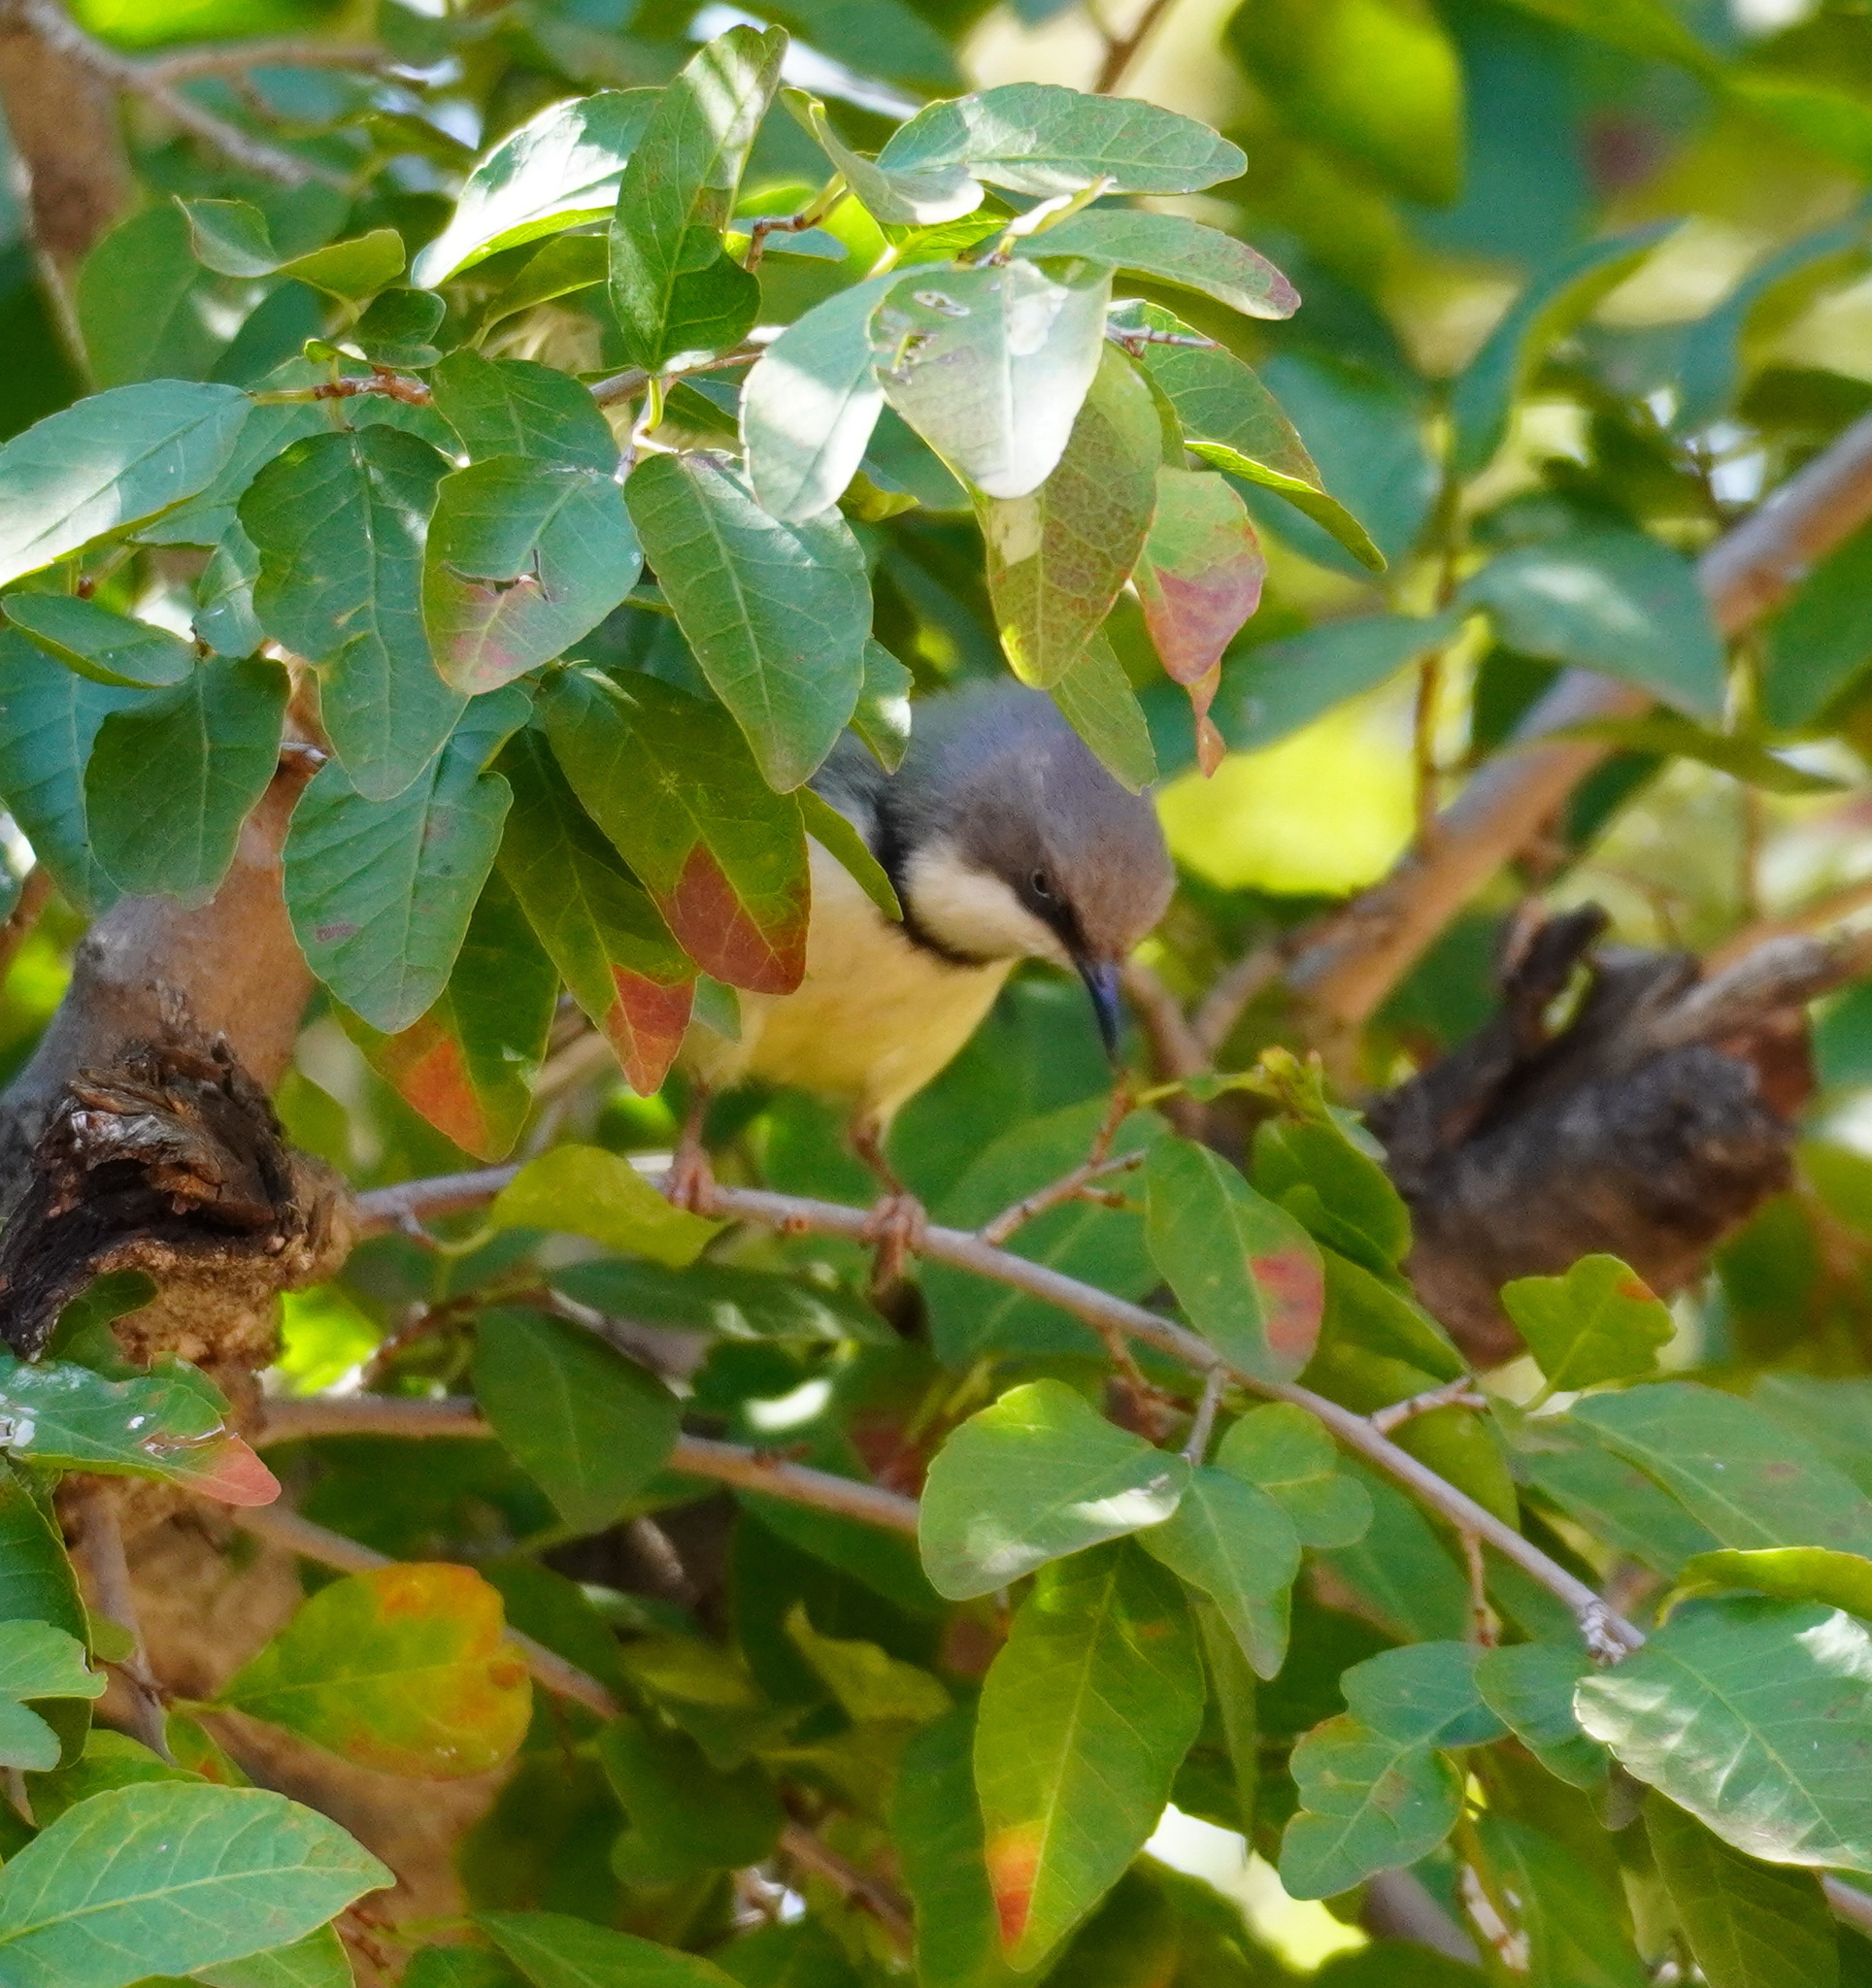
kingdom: Animalia
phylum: Chordata
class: Aves
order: Passeriformes
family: Cisticolidae
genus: Apalis
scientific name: Apalis thoracica
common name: Bar-throated apalis
